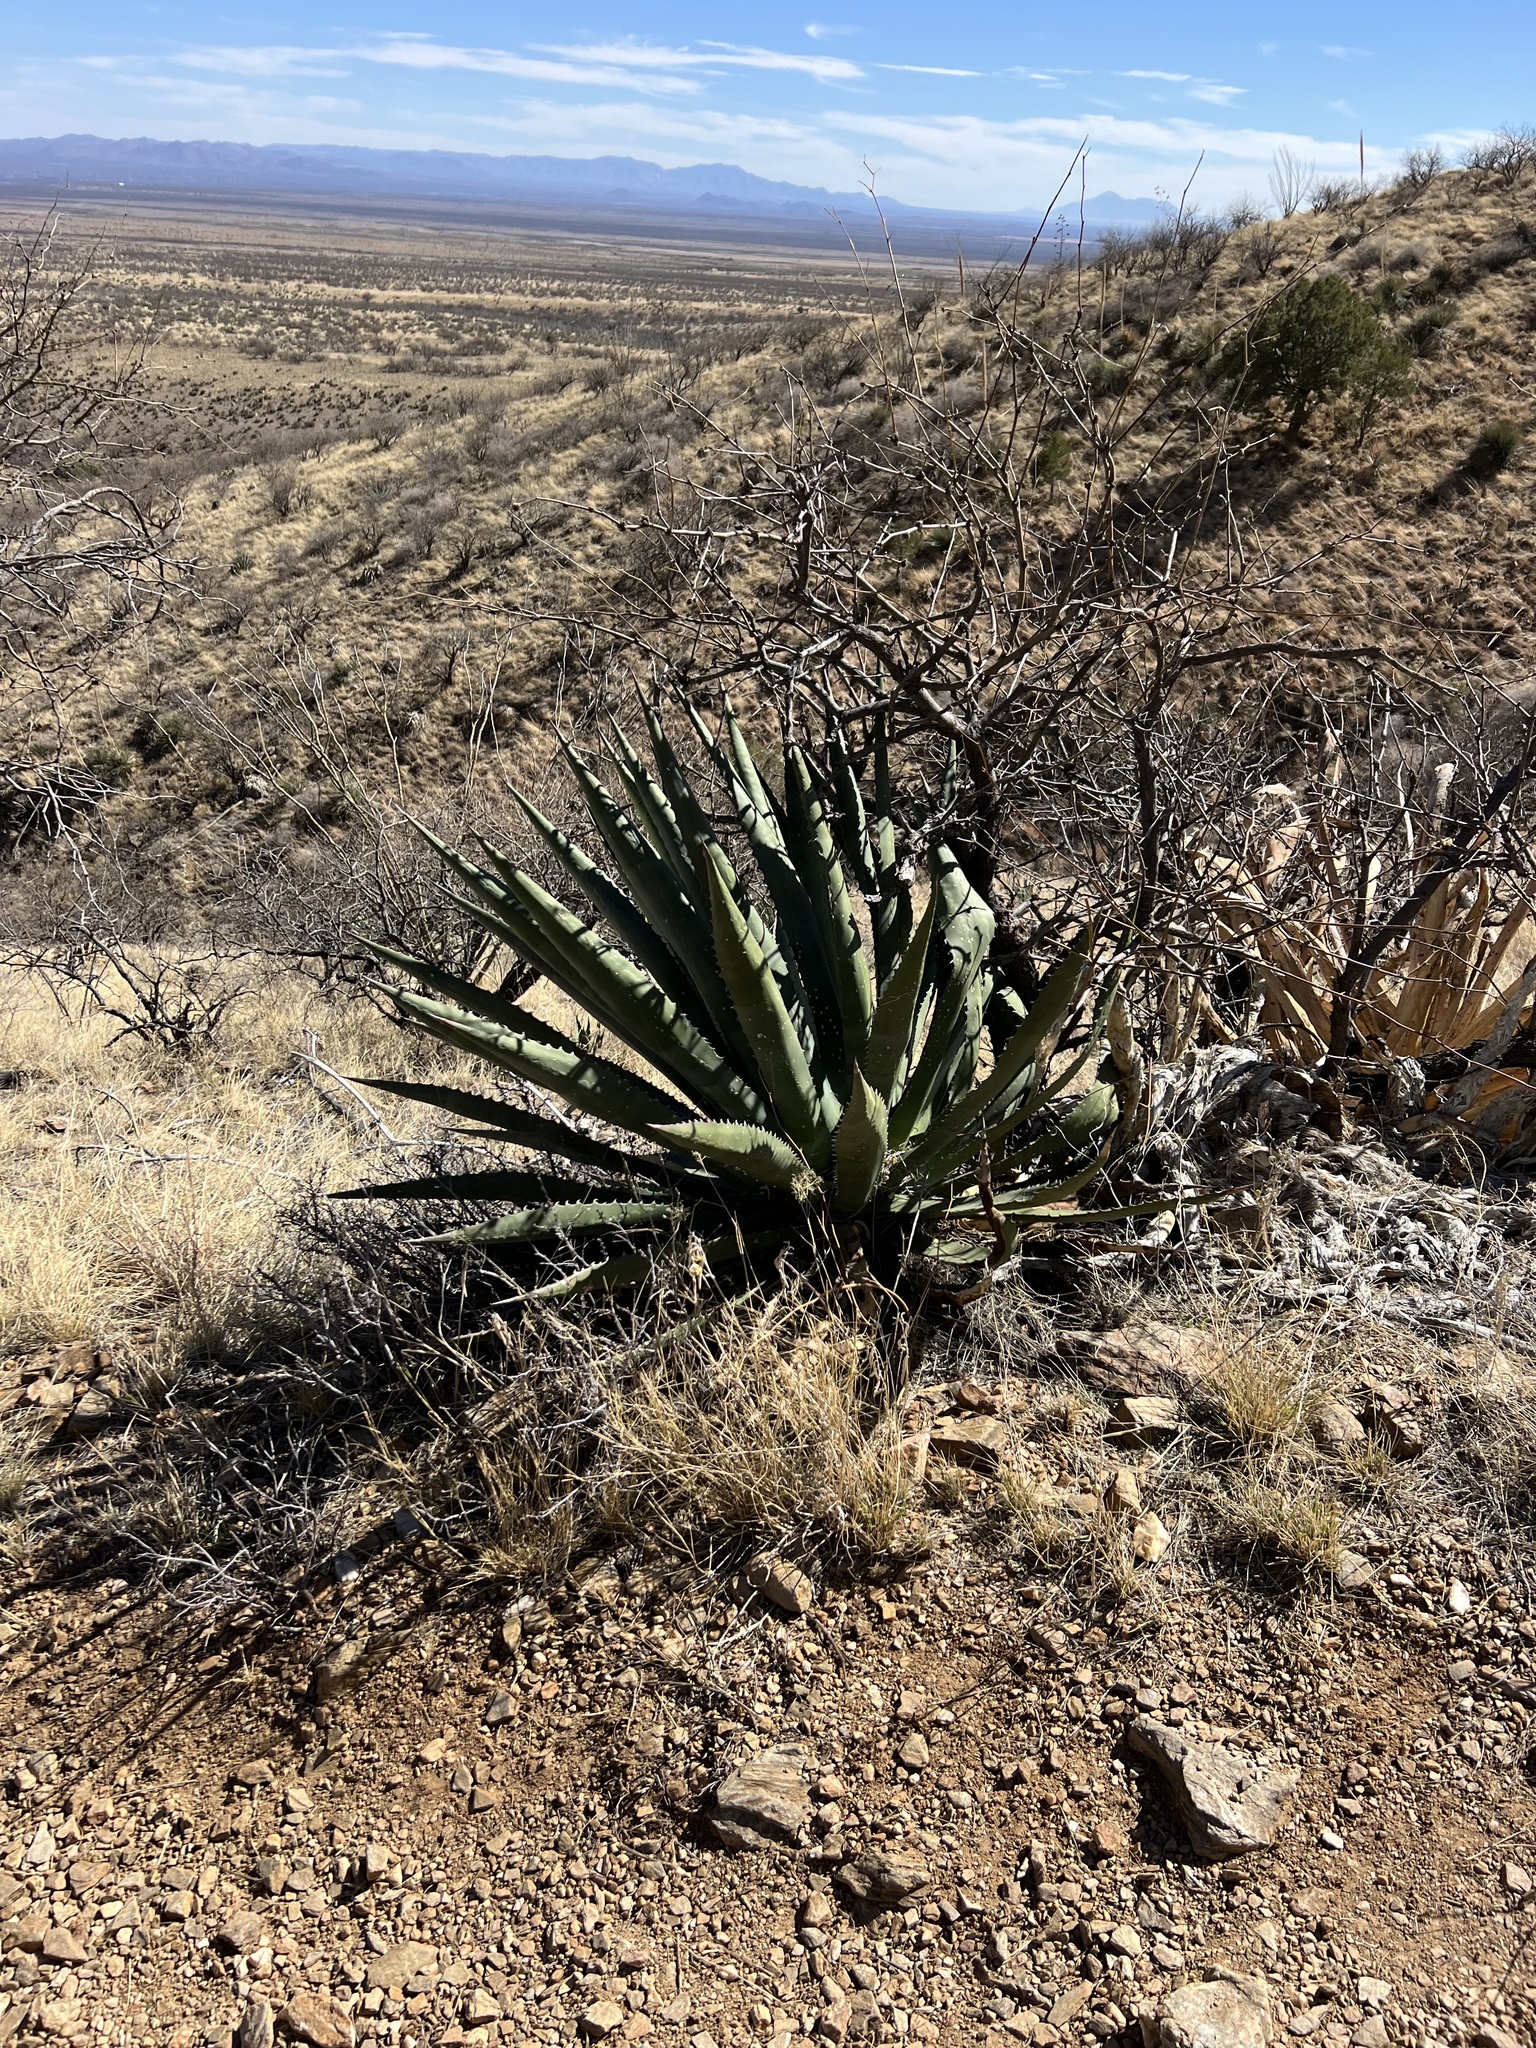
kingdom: Plantae
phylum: Tracheophyta
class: Liliopsida
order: Asparagales
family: Asparagaceae
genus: Agave
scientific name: Agave palmeri
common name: Palmer agave
